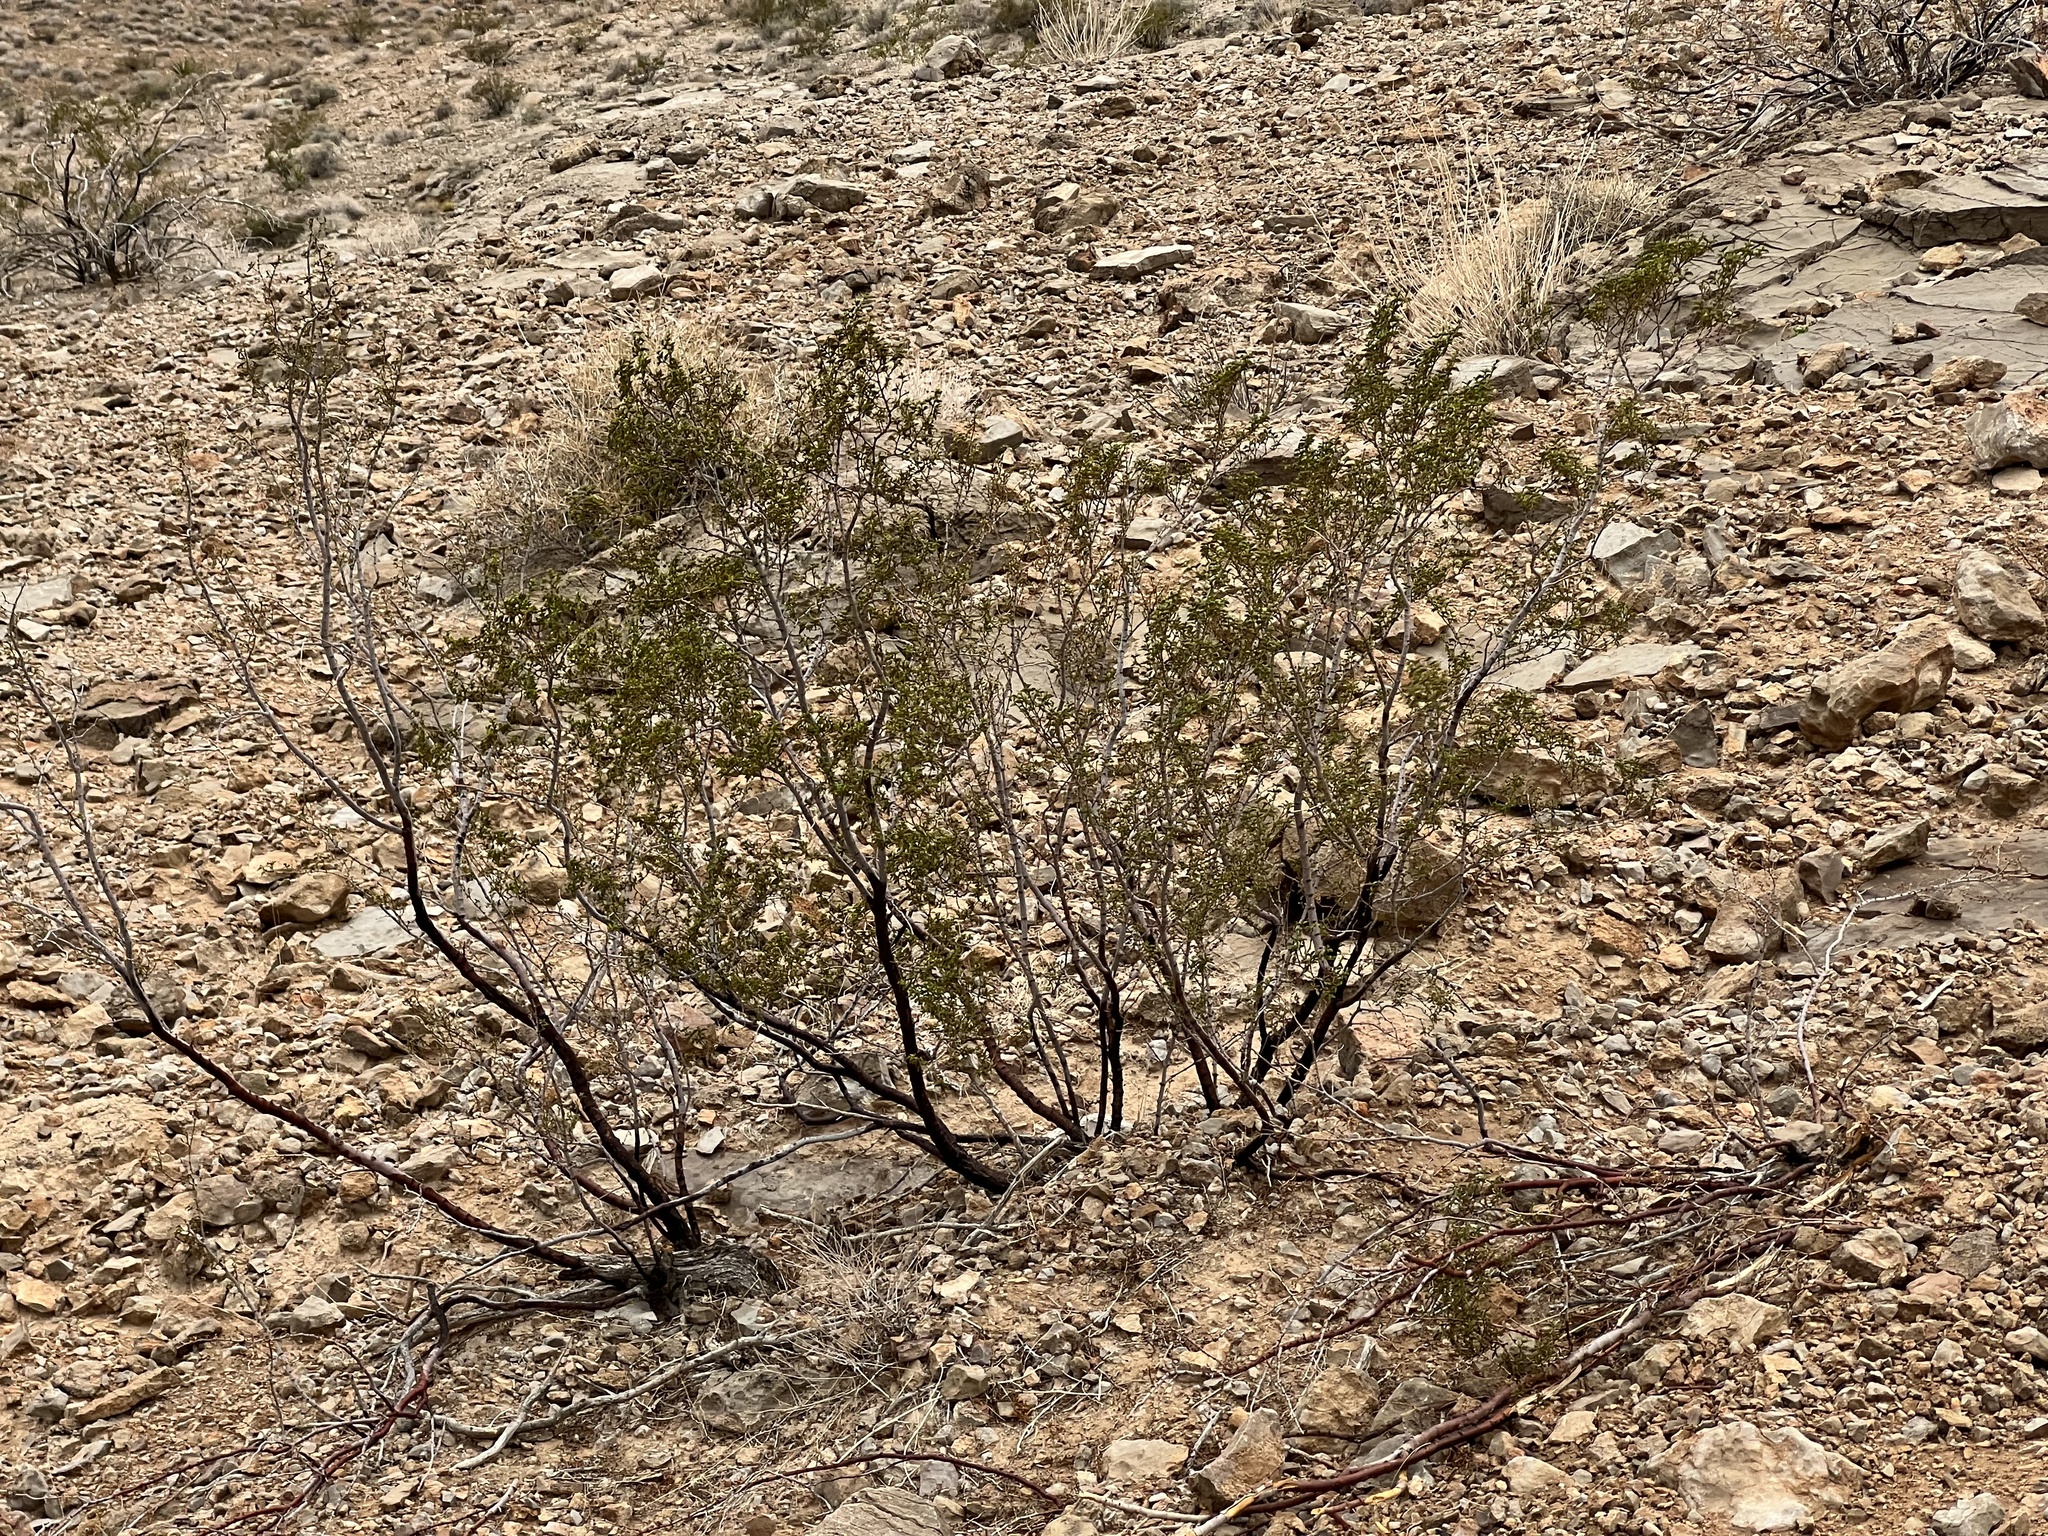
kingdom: Plantae
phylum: Tracheophyta
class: Magnoliopsida
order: Zygophyllales
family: Zygophyllaceae
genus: Larrea
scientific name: Larrea tridentata
